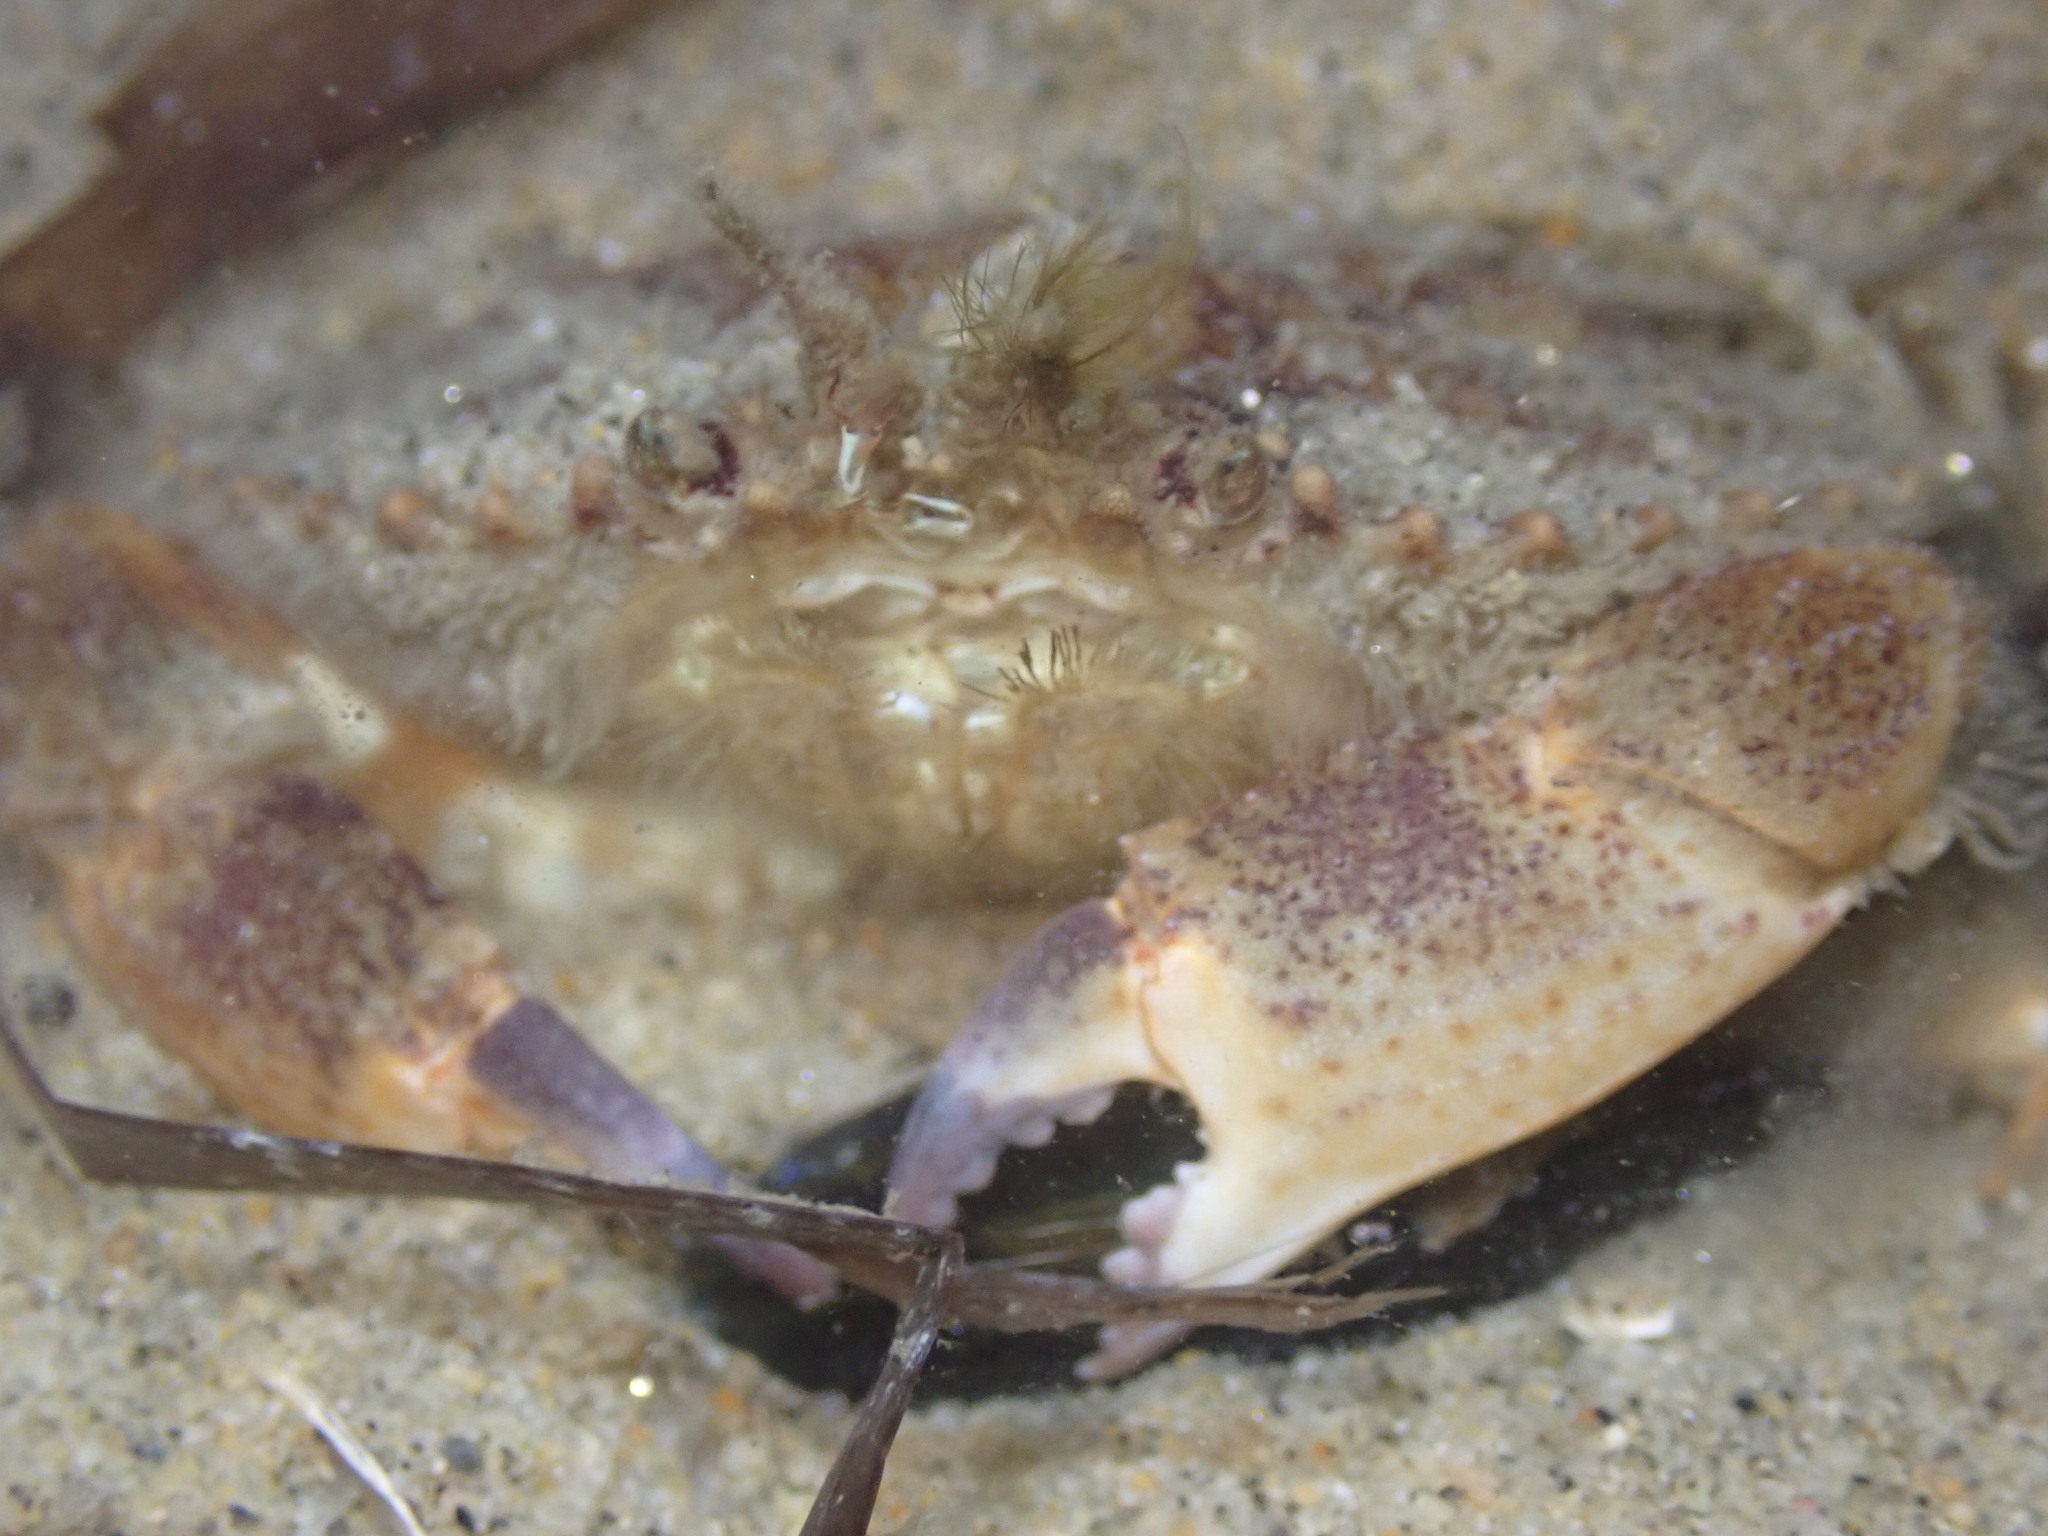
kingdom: Animalia
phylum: Arthropoda
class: Malacostraca
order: Decapoda
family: Cancridae
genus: Metacarcinus
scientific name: Metacarcinus anthonyi
